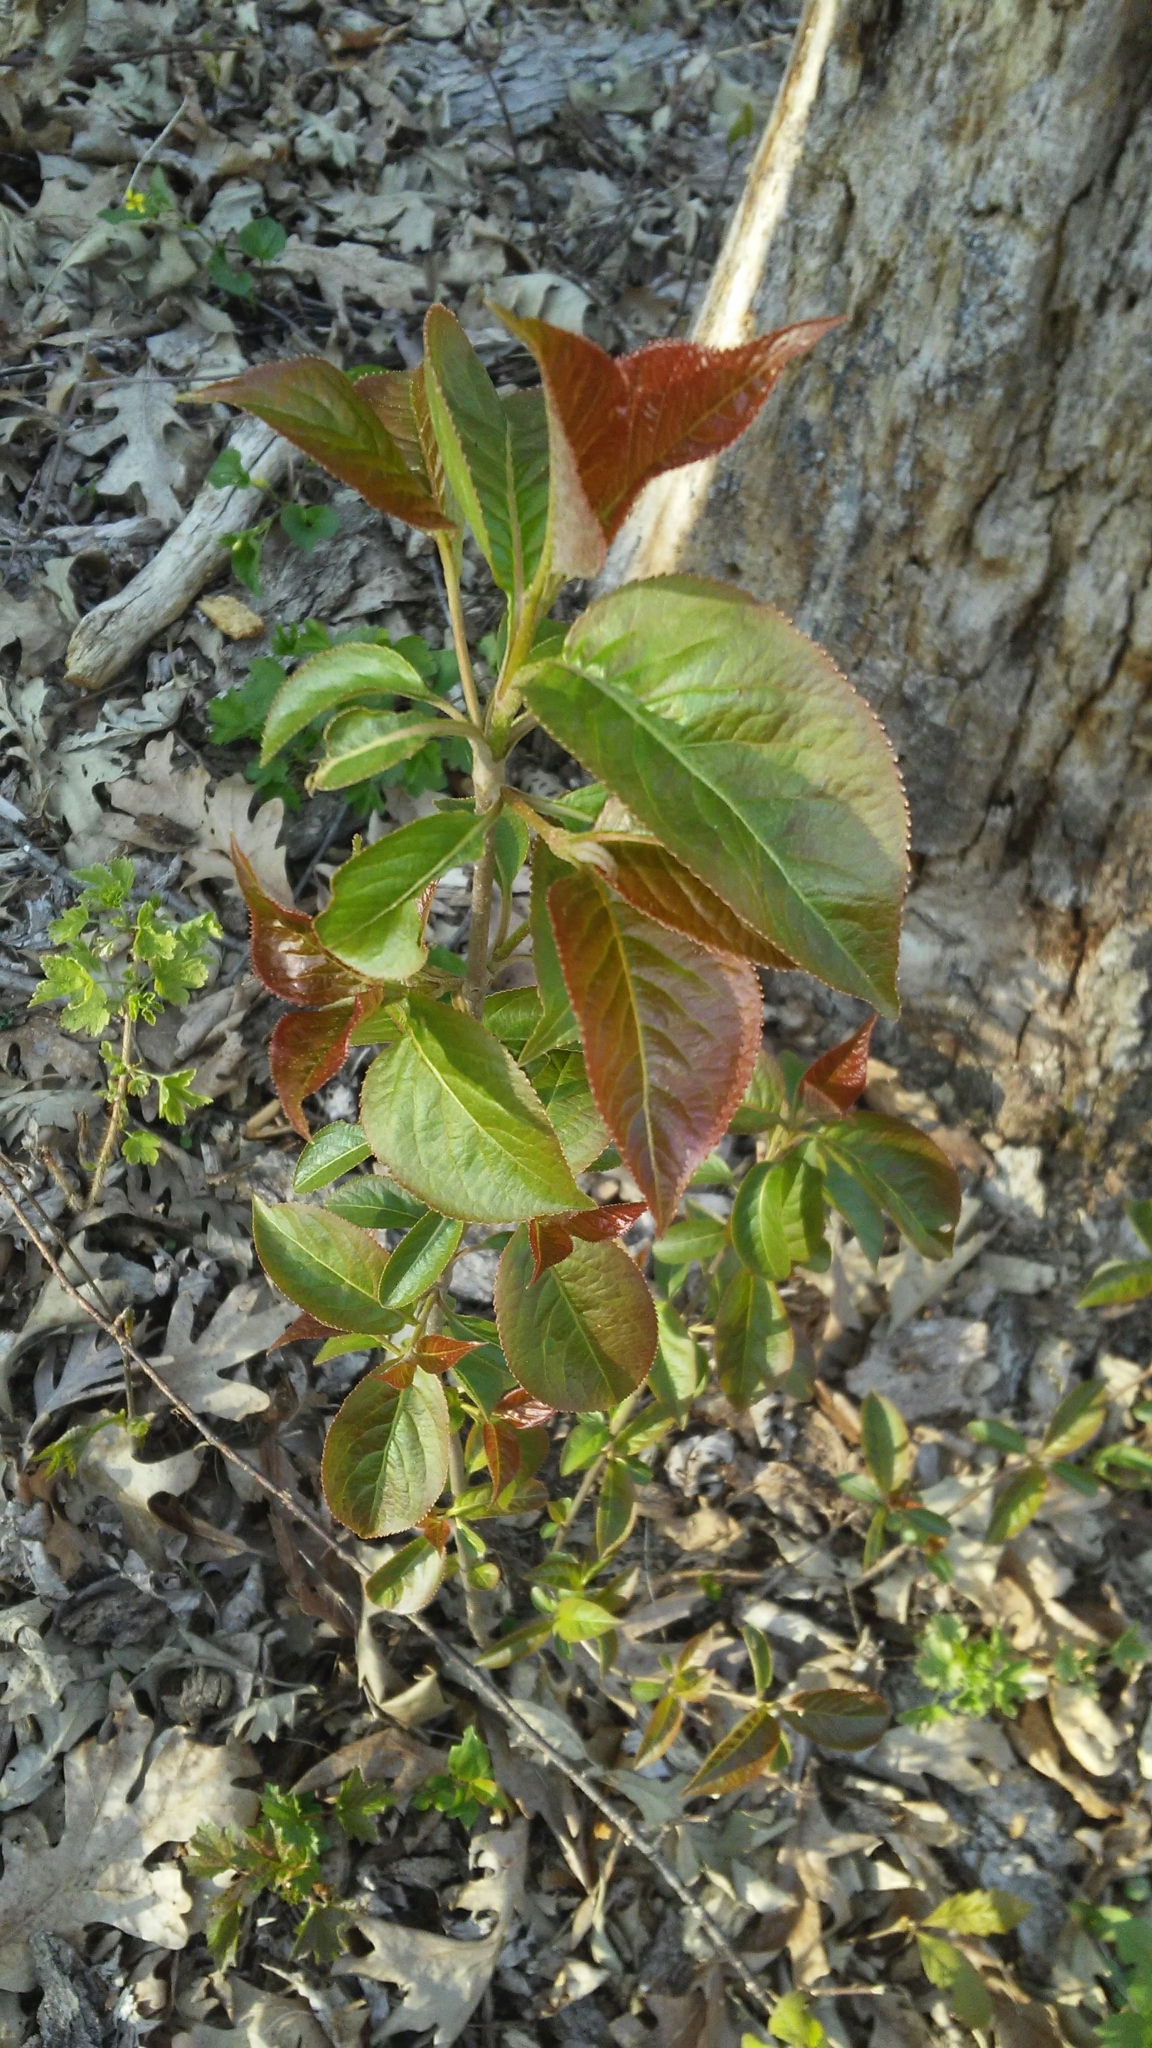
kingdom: Plantae
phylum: Tracheophyta
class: Magnoliopsida
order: Dipsacales
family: Viburnaceae
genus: Viburnum
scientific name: Viburnum lentago
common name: Black haw
